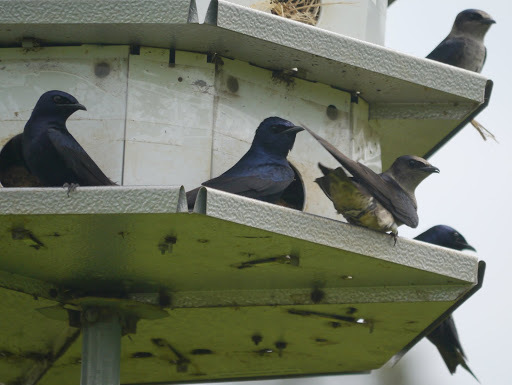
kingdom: Animalia
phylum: Chordata
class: Aves
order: Passeriformes
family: Hirundinidae
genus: Progne
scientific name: Progne subis
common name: Purple martin
